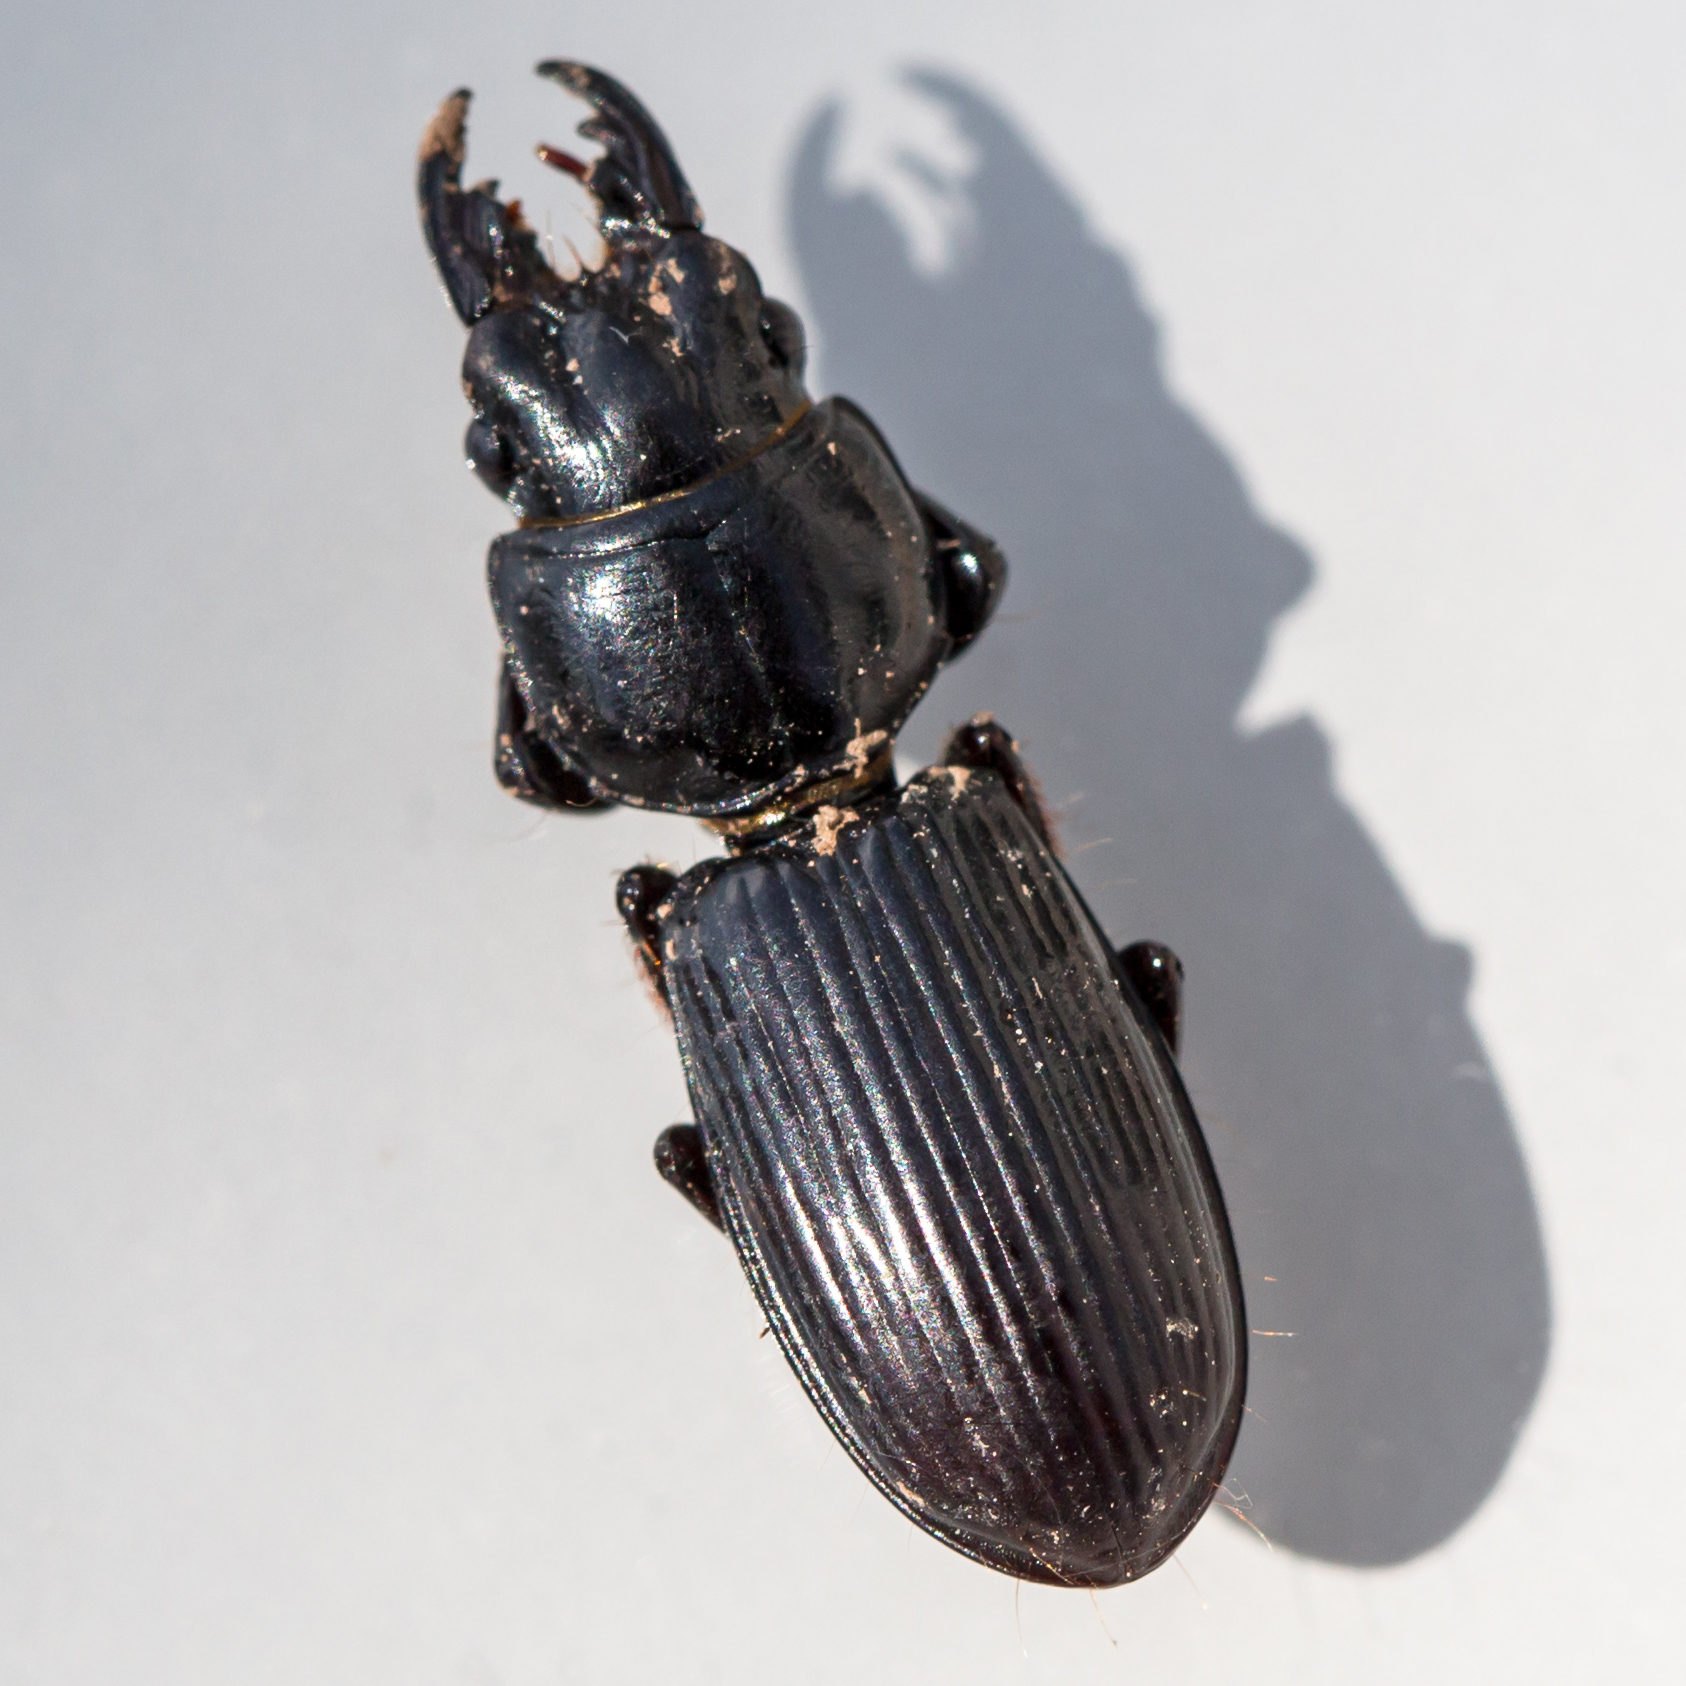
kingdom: Animalia
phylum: Arthropoda
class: Insecta
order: Coleoptera
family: Carabidae
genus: Scarites
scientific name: Scarites subterraneus
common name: Big-headed ground beetle
